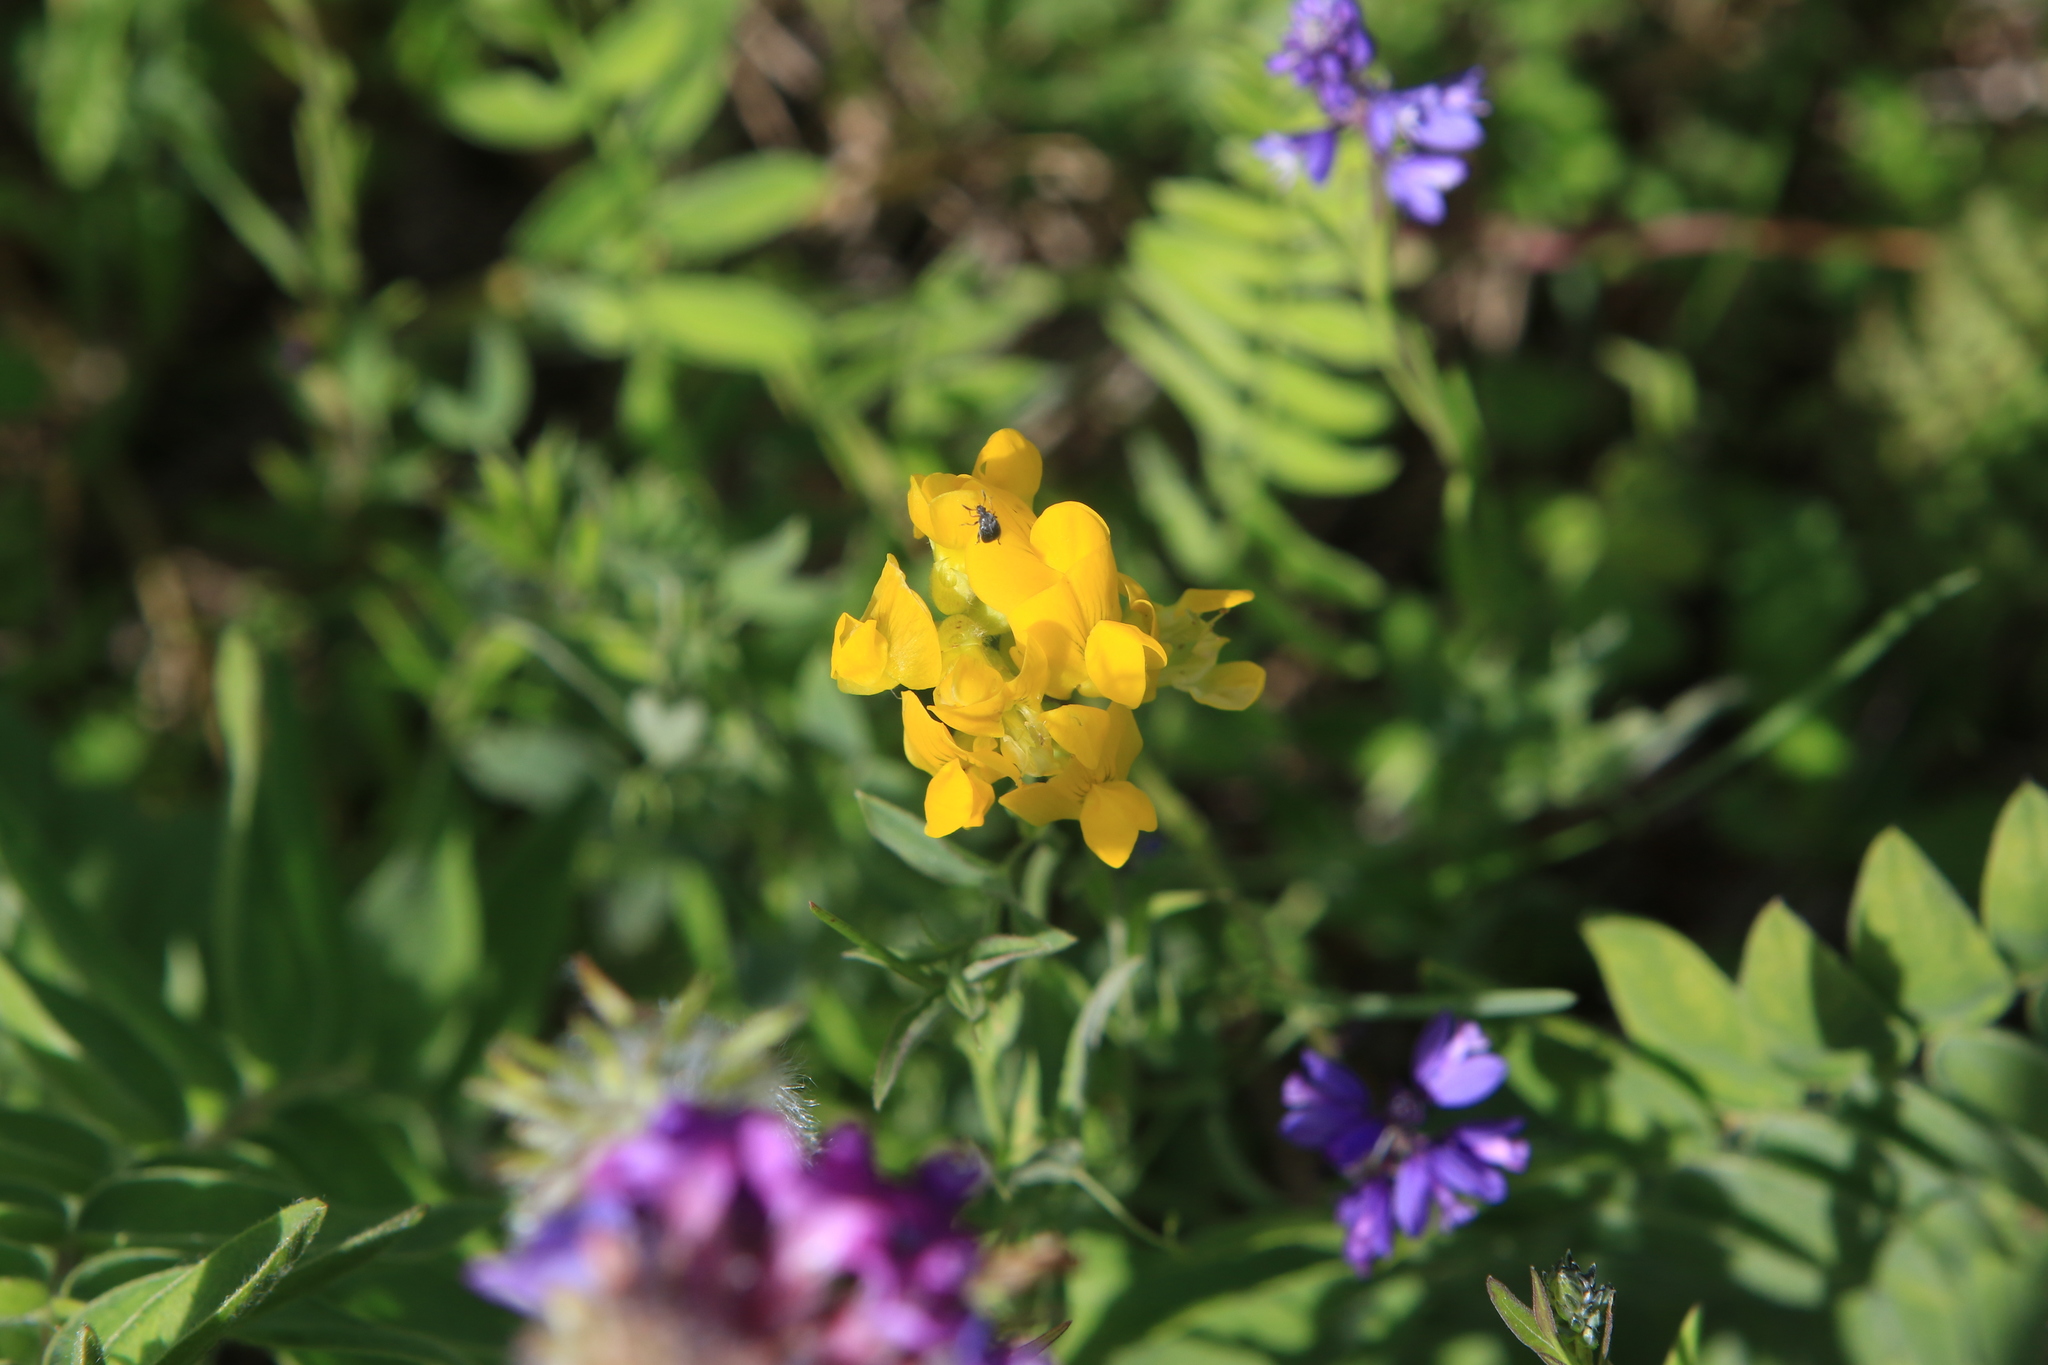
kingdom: Plantae
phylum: Tracheophyta
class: Magnoliopsida
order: Fabales
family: Fabaceae
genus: Lathyrus
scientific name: Lathyrus pratensis
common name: Meadow vetchling
